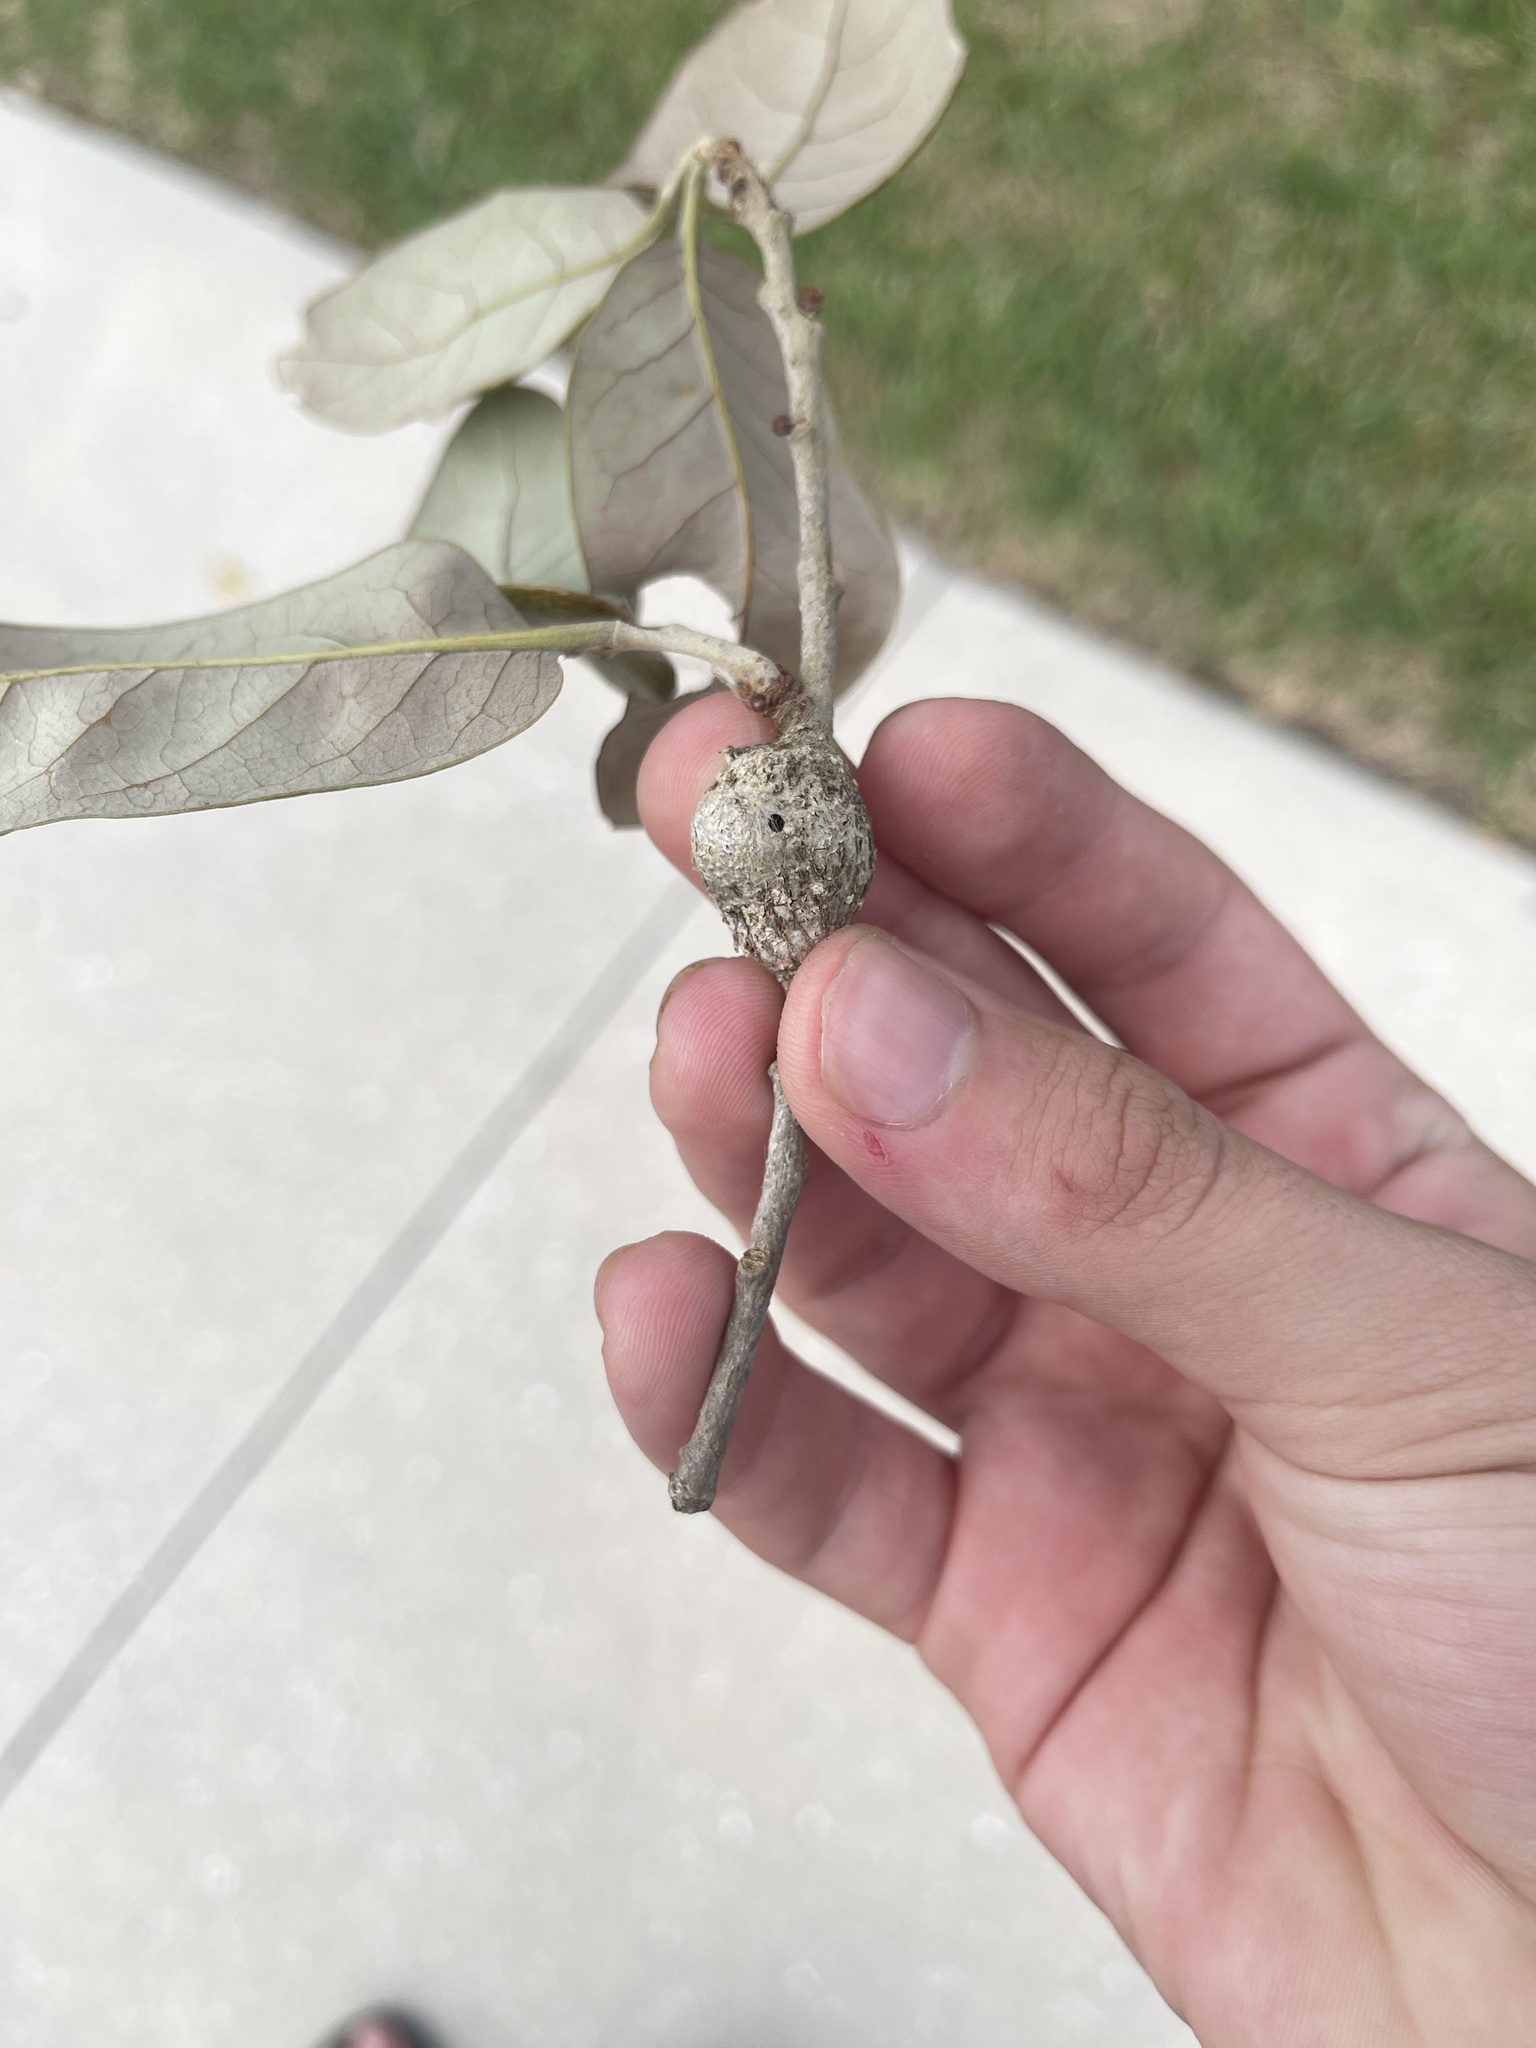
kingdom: Animalia
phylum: Arthropoda
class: Insecta
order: Hymenoptera
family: Cynipidae
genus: Callirhytis
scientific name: Callirhytis
